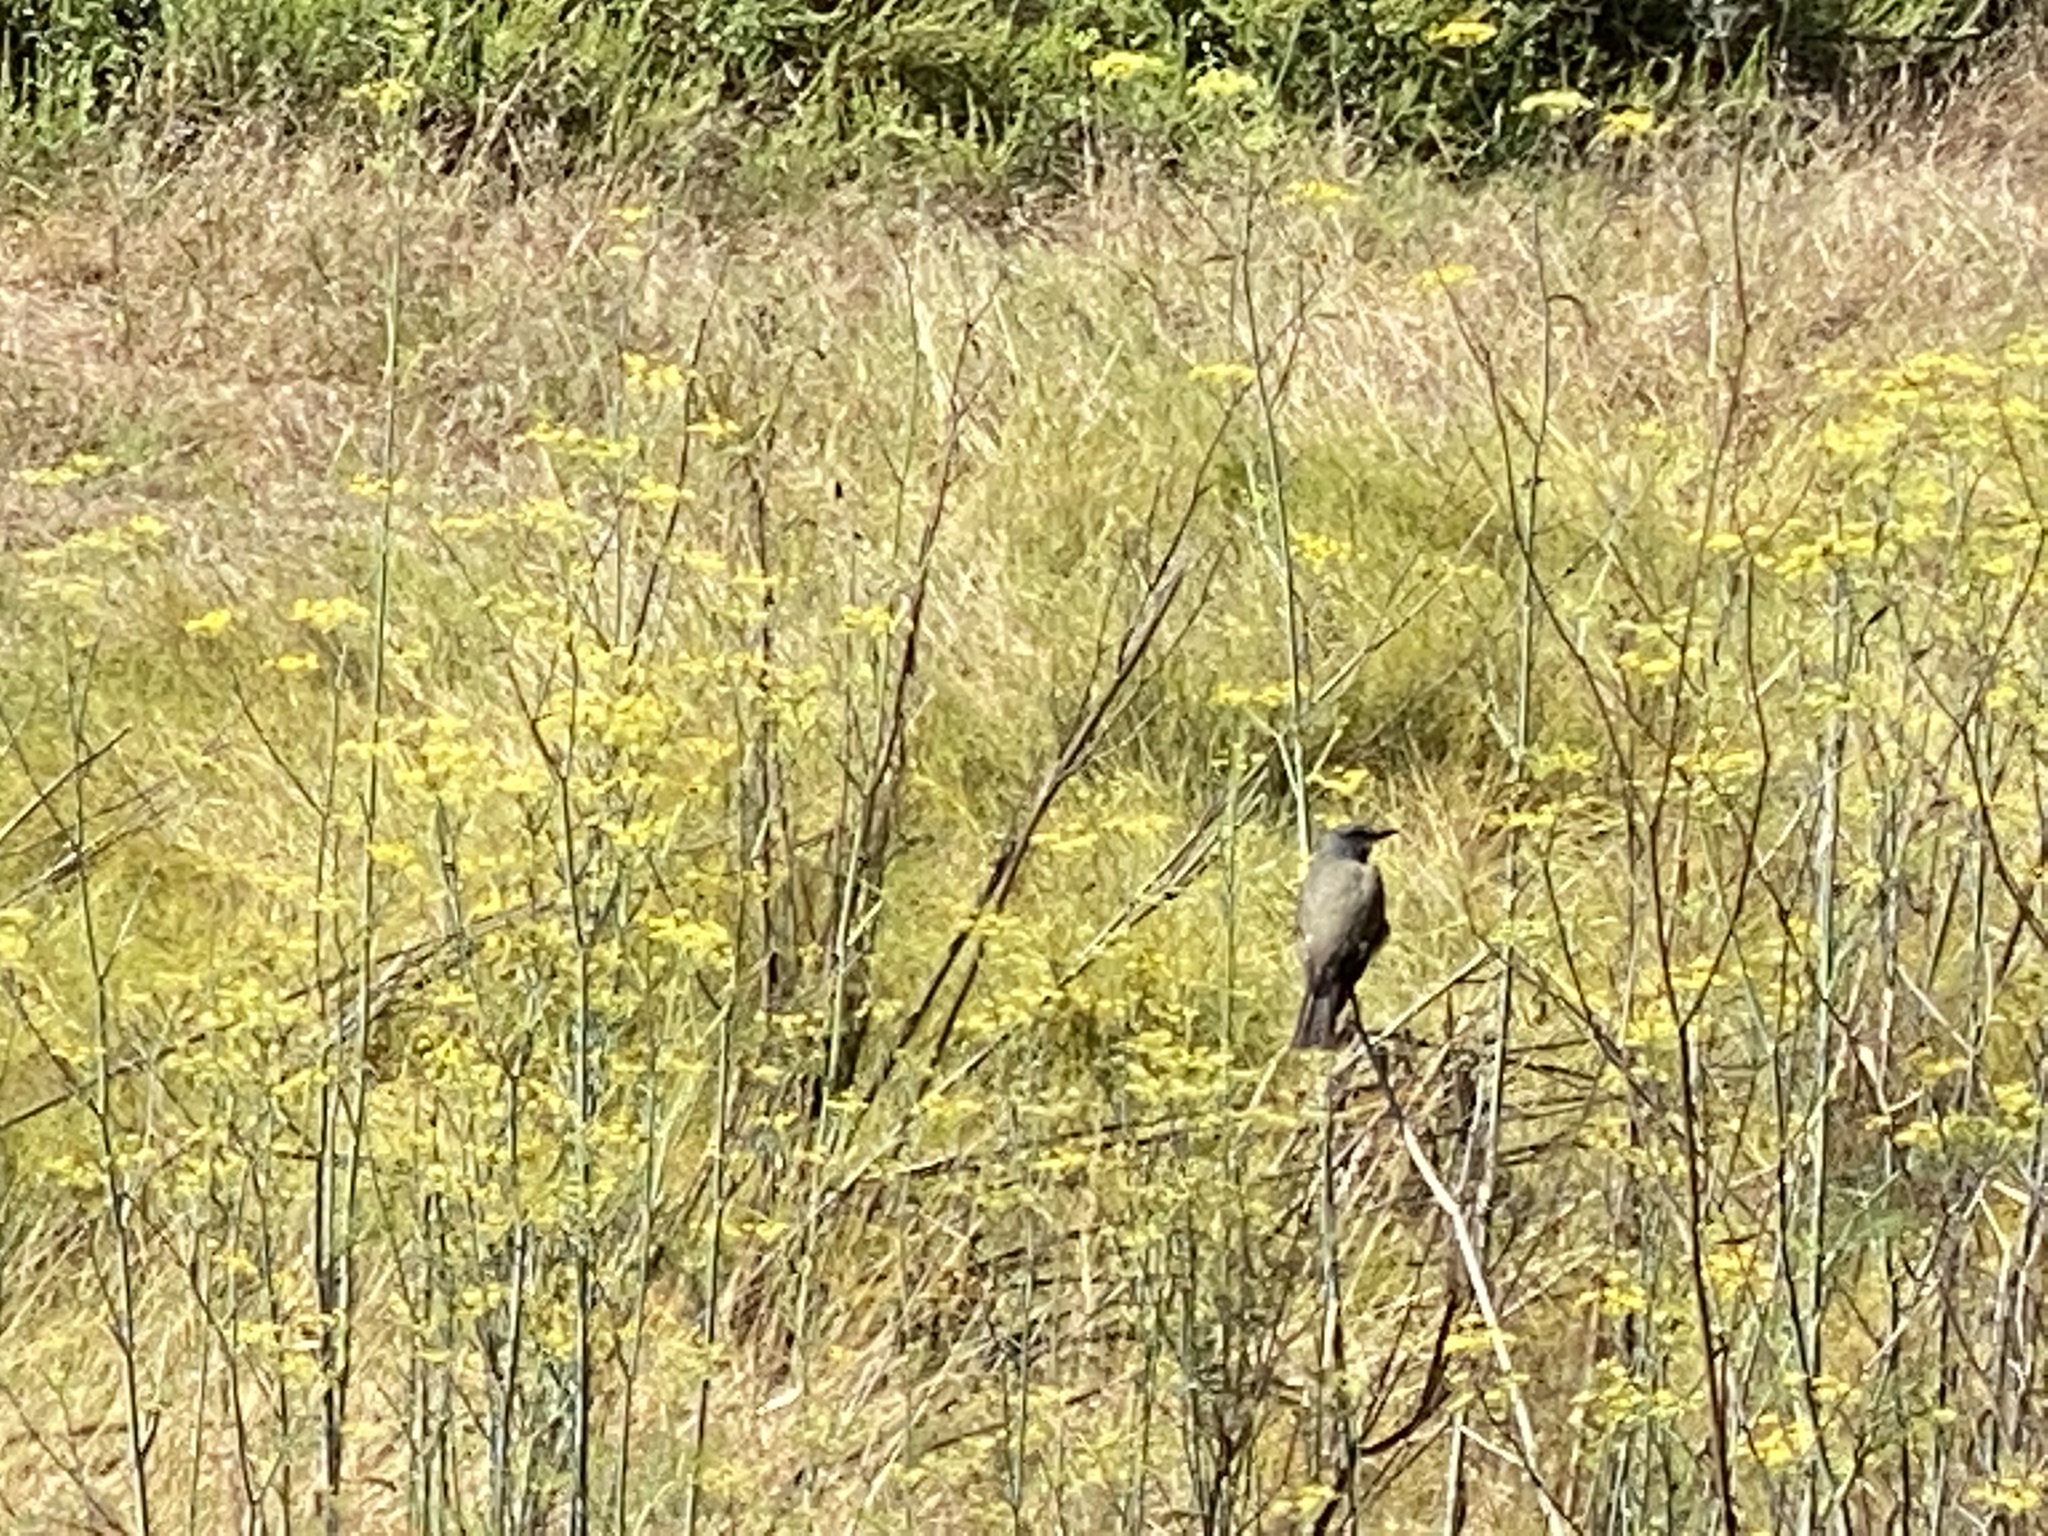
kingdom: Animalia
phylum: Chordata
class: Aves
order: Passeriformes
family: Tyrannidae
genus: Tyrannus
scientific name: Tyrannus vociferans
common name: Cassin's kingbird
